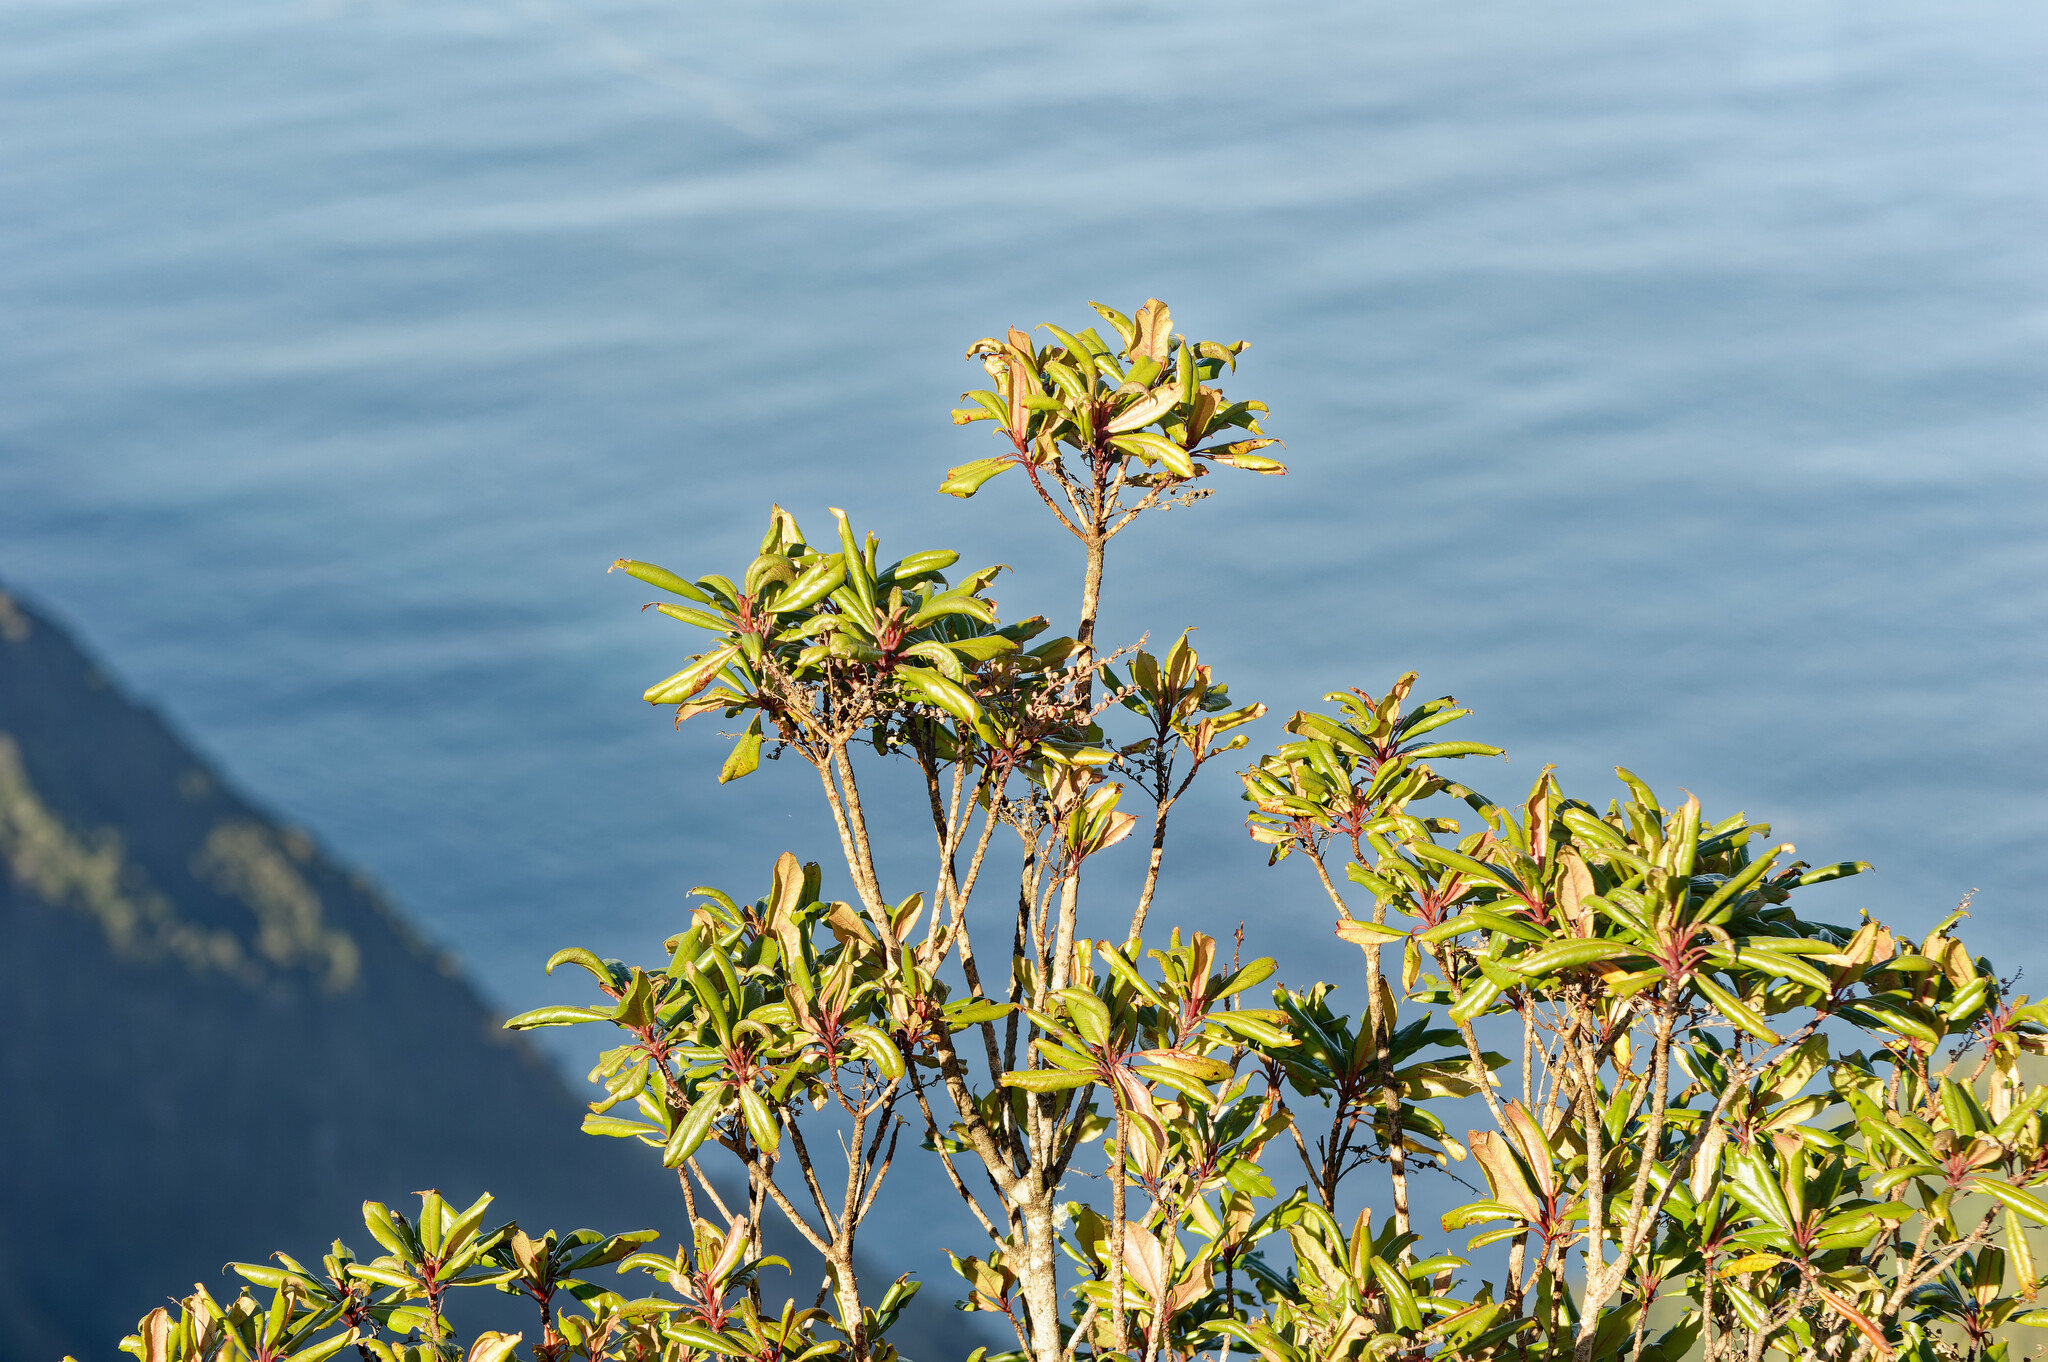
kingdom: Plantae
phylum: Tracheophyta
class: Magnoliopsida
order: Ericales
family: Clethraceae
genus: Clethra
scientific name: Clethra arborea
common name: Lily-of-the-valley-tree
